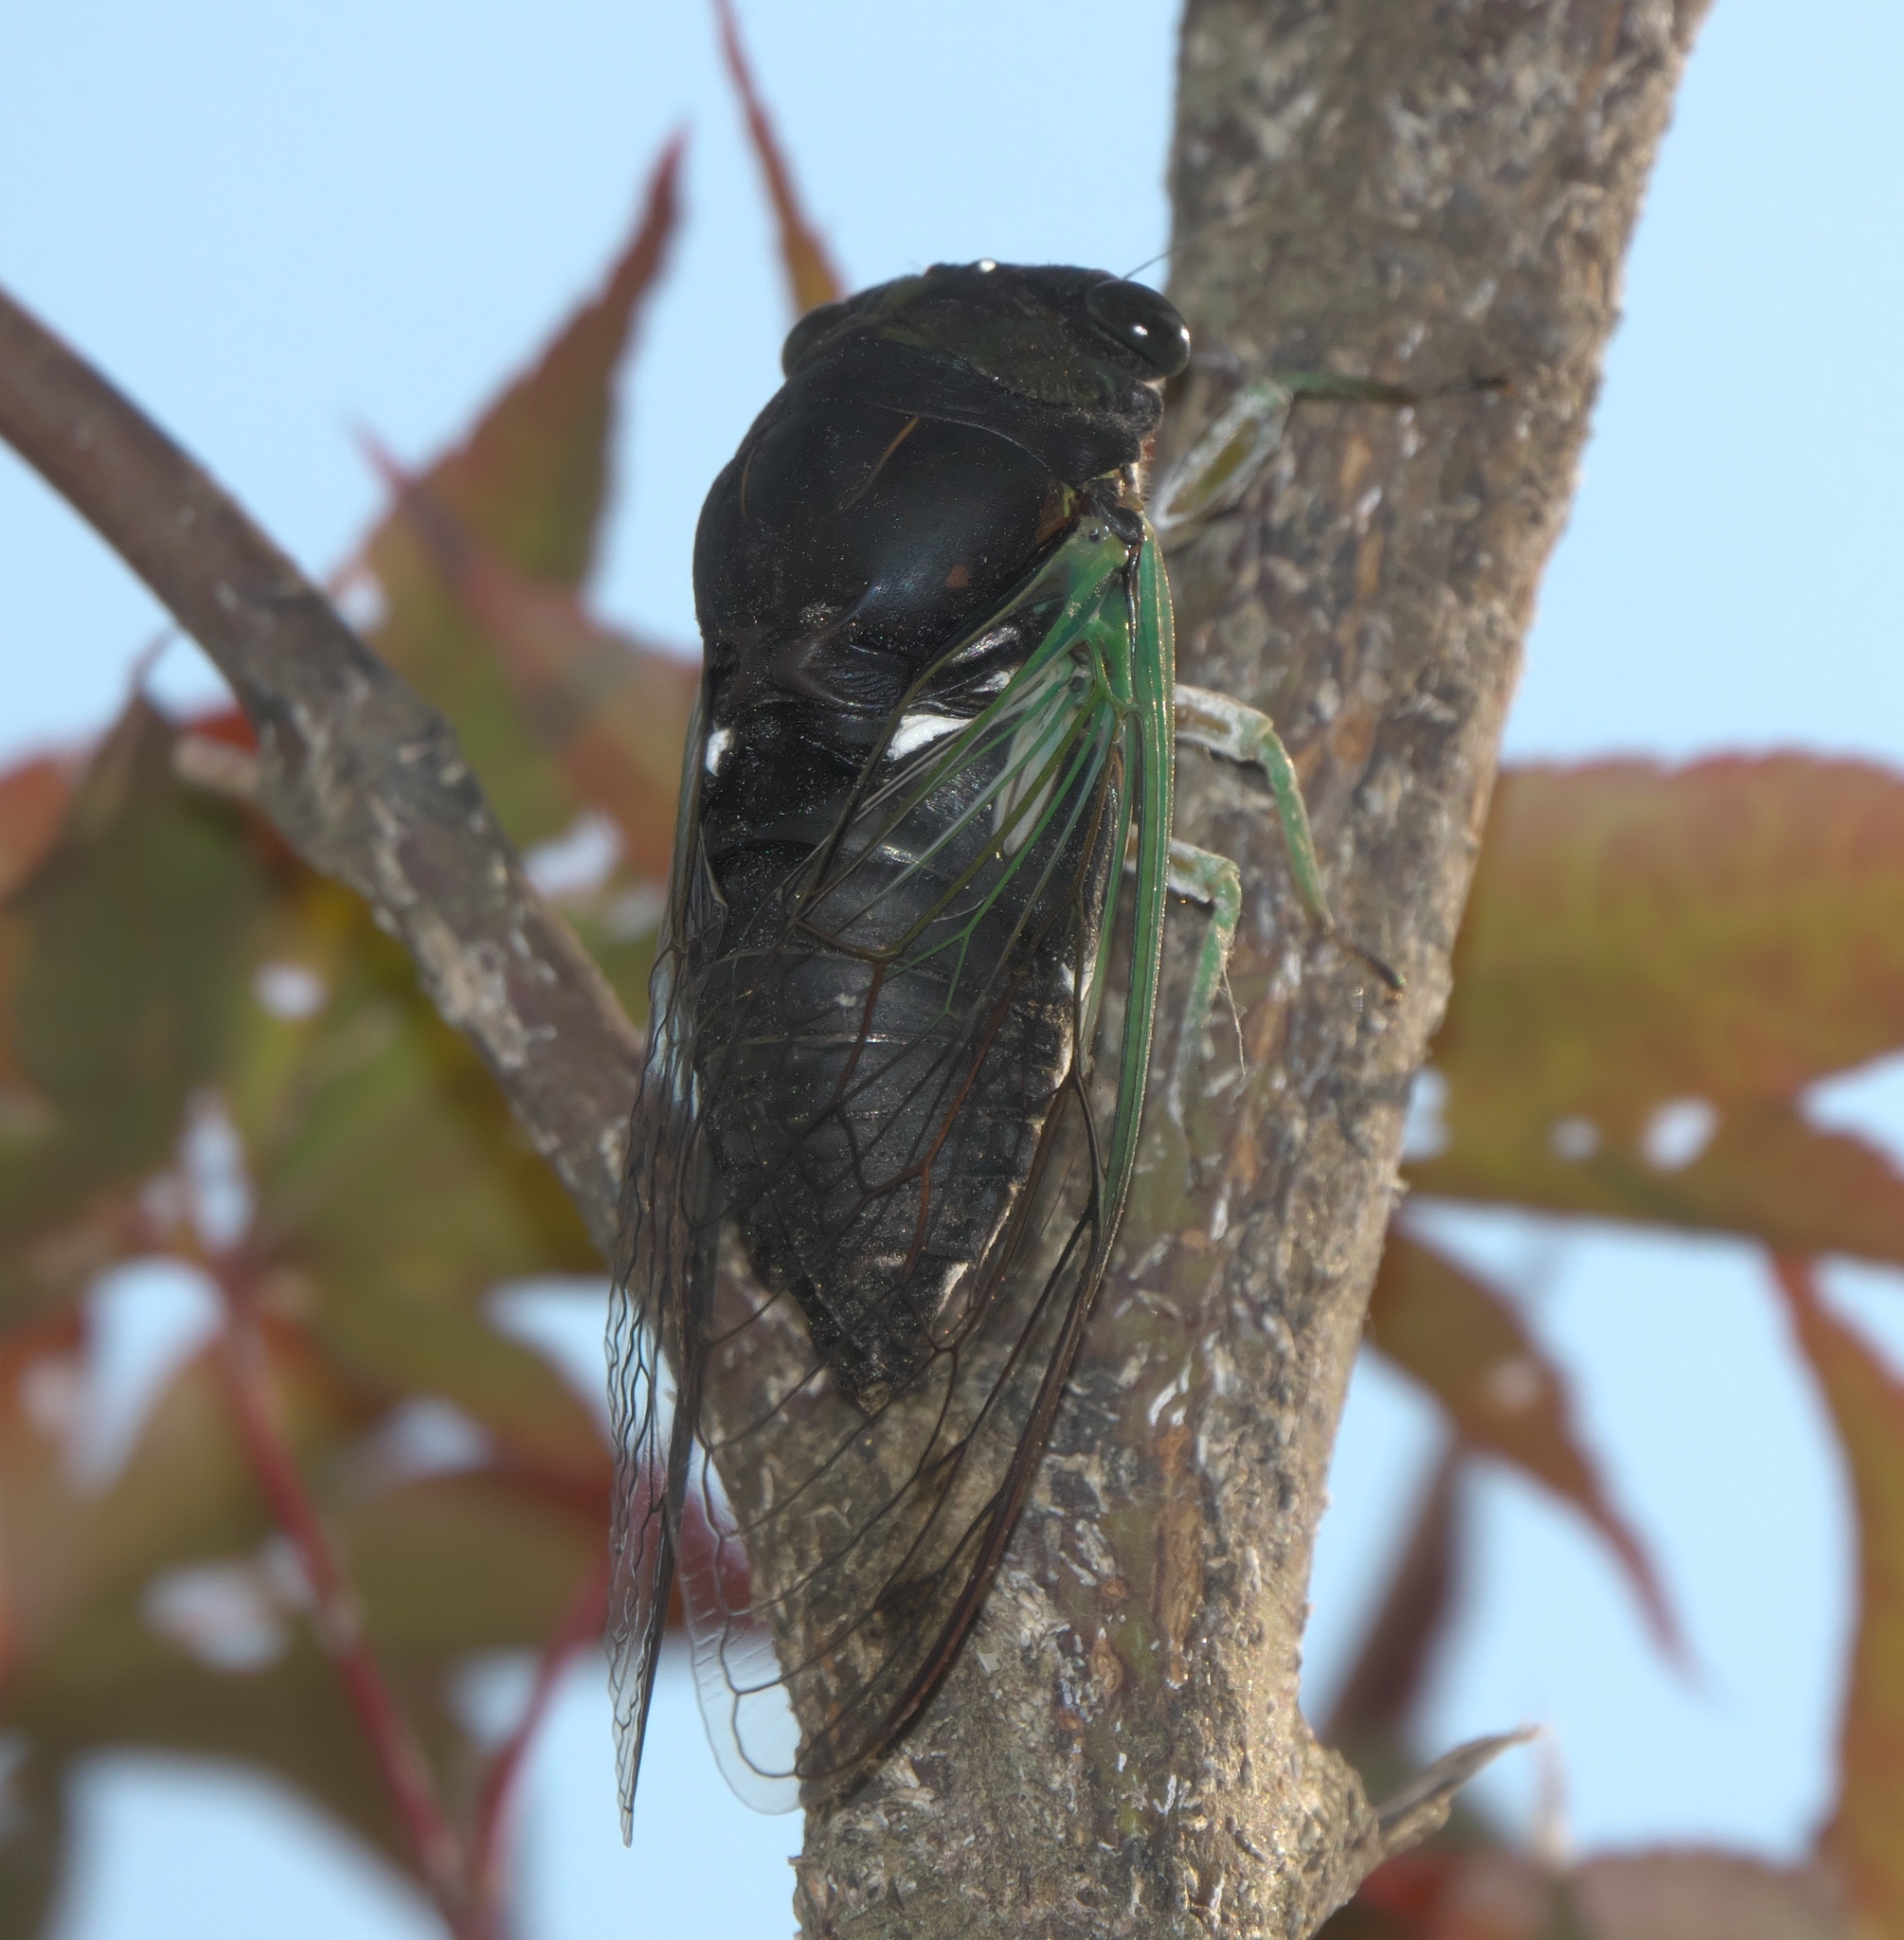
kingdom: Animalia
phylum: Arthropoda
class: Insecta
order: Hemiptera
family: Cicadidae
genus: Neotibicen
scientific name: Neotibicen tibicen
